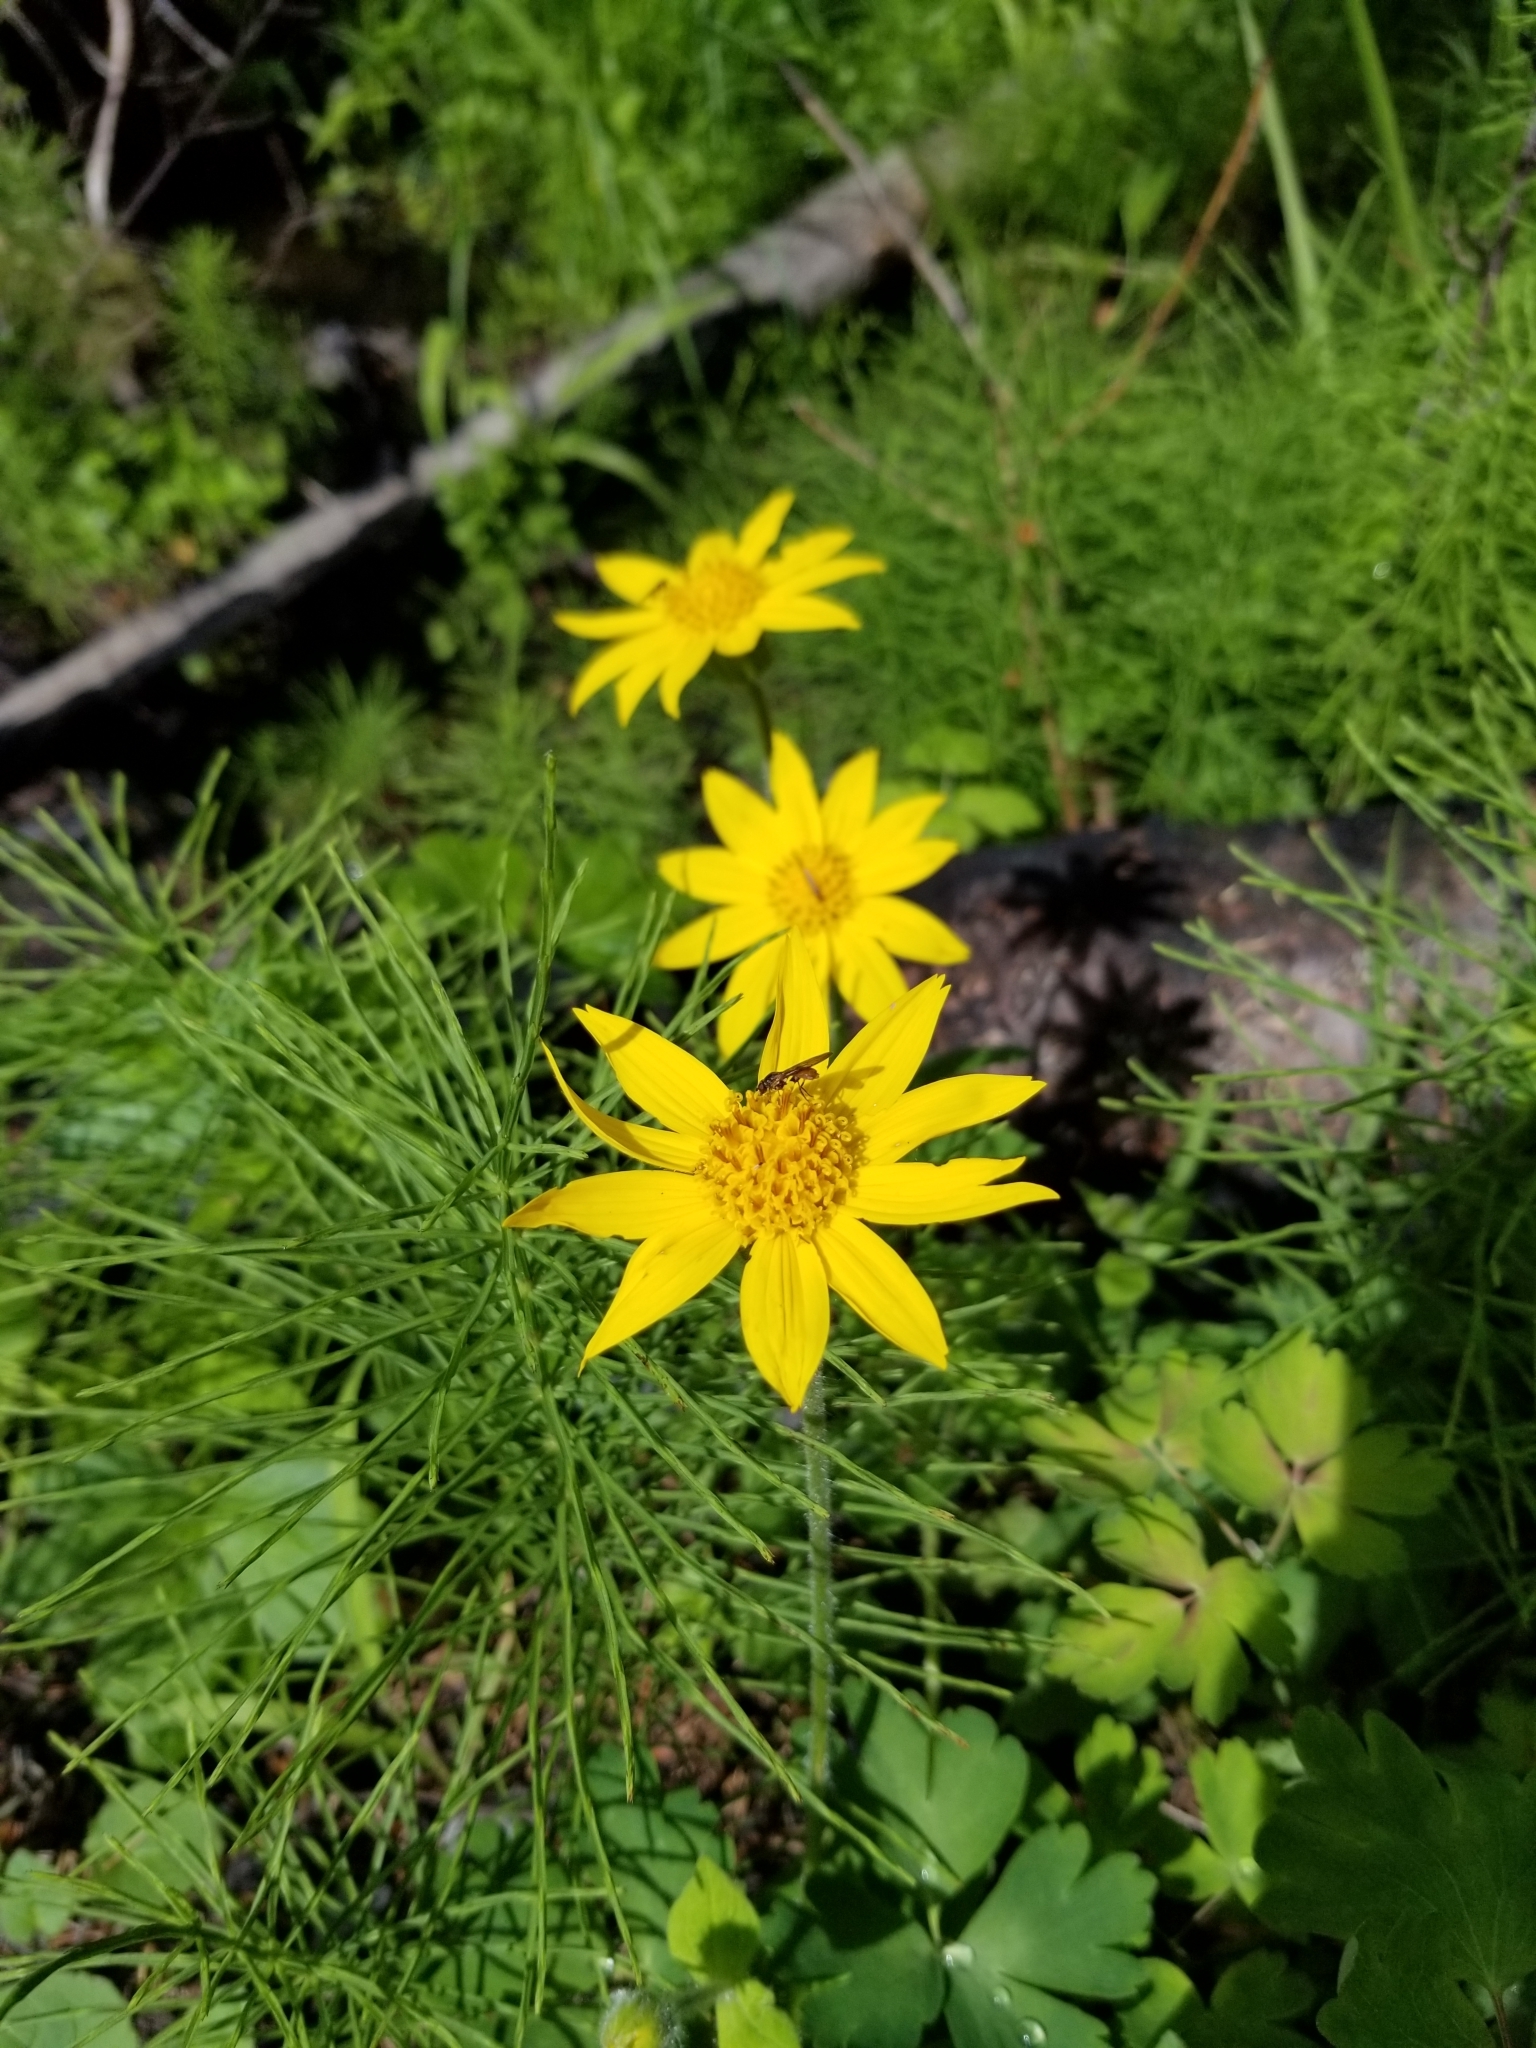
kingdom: Plantae
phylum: Tracheophyta
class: Magnoliopsida
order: Asterales
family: Asteraceae
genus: Arnica
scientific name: Arnica cordifolia
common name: Heart-leaf arnica
